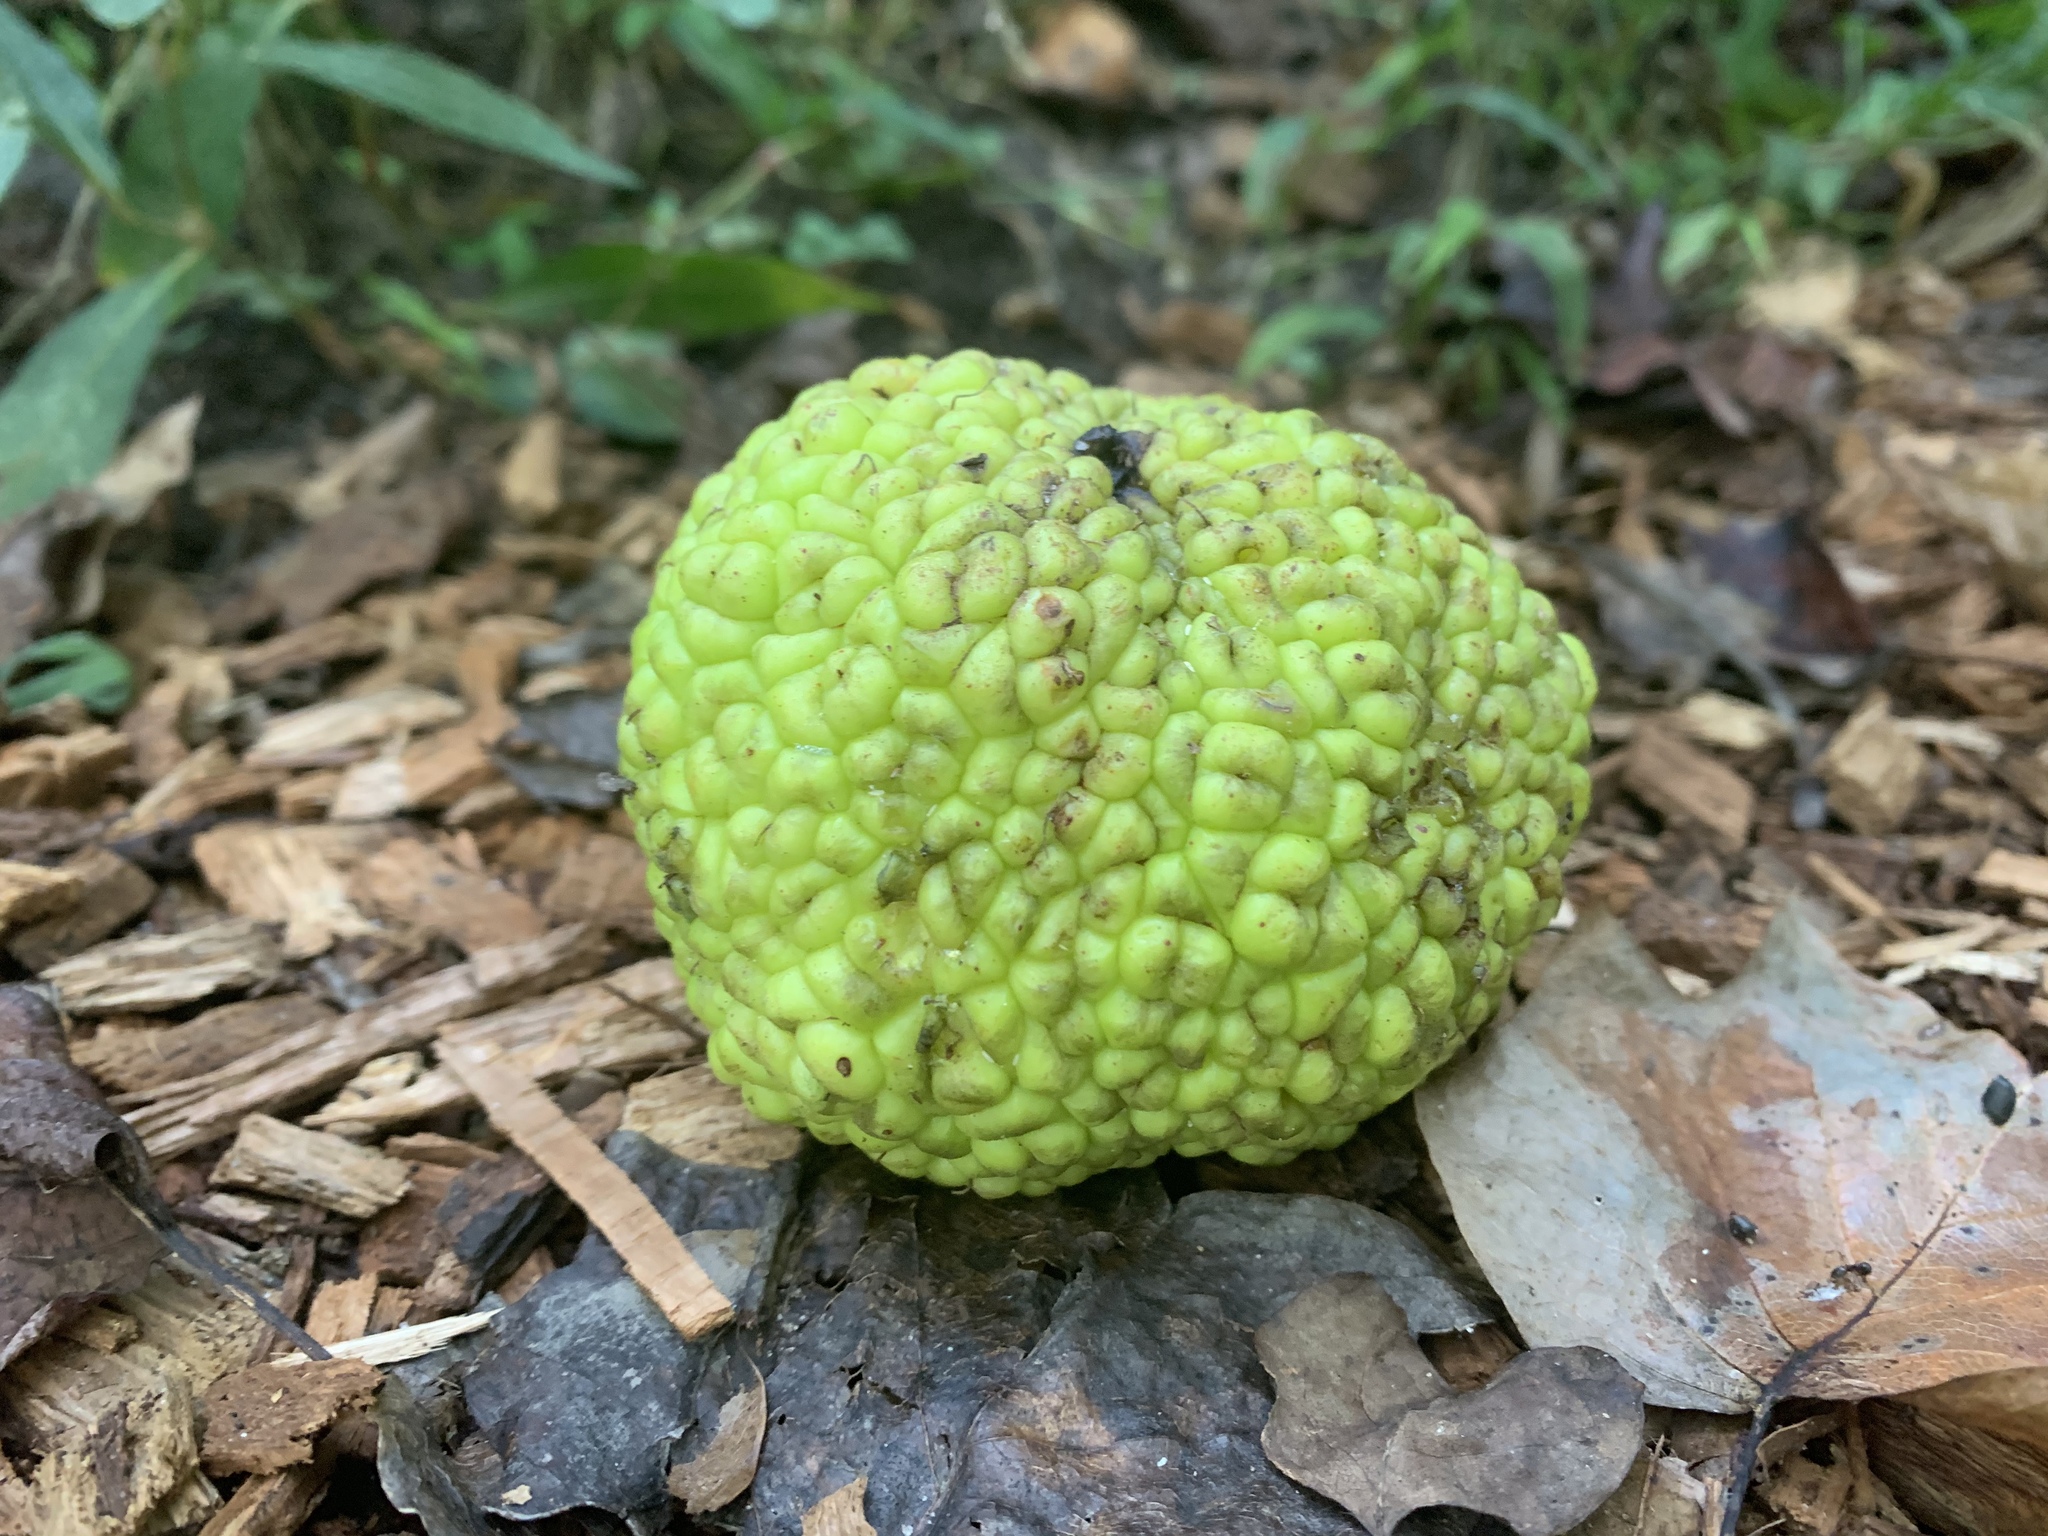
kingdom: Plantae
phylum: Tracheophyta
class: Magnoliopsida
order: Rosales
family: Moraceae
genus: Maclura
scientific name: Maclura pomifera
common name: Osage-orange
